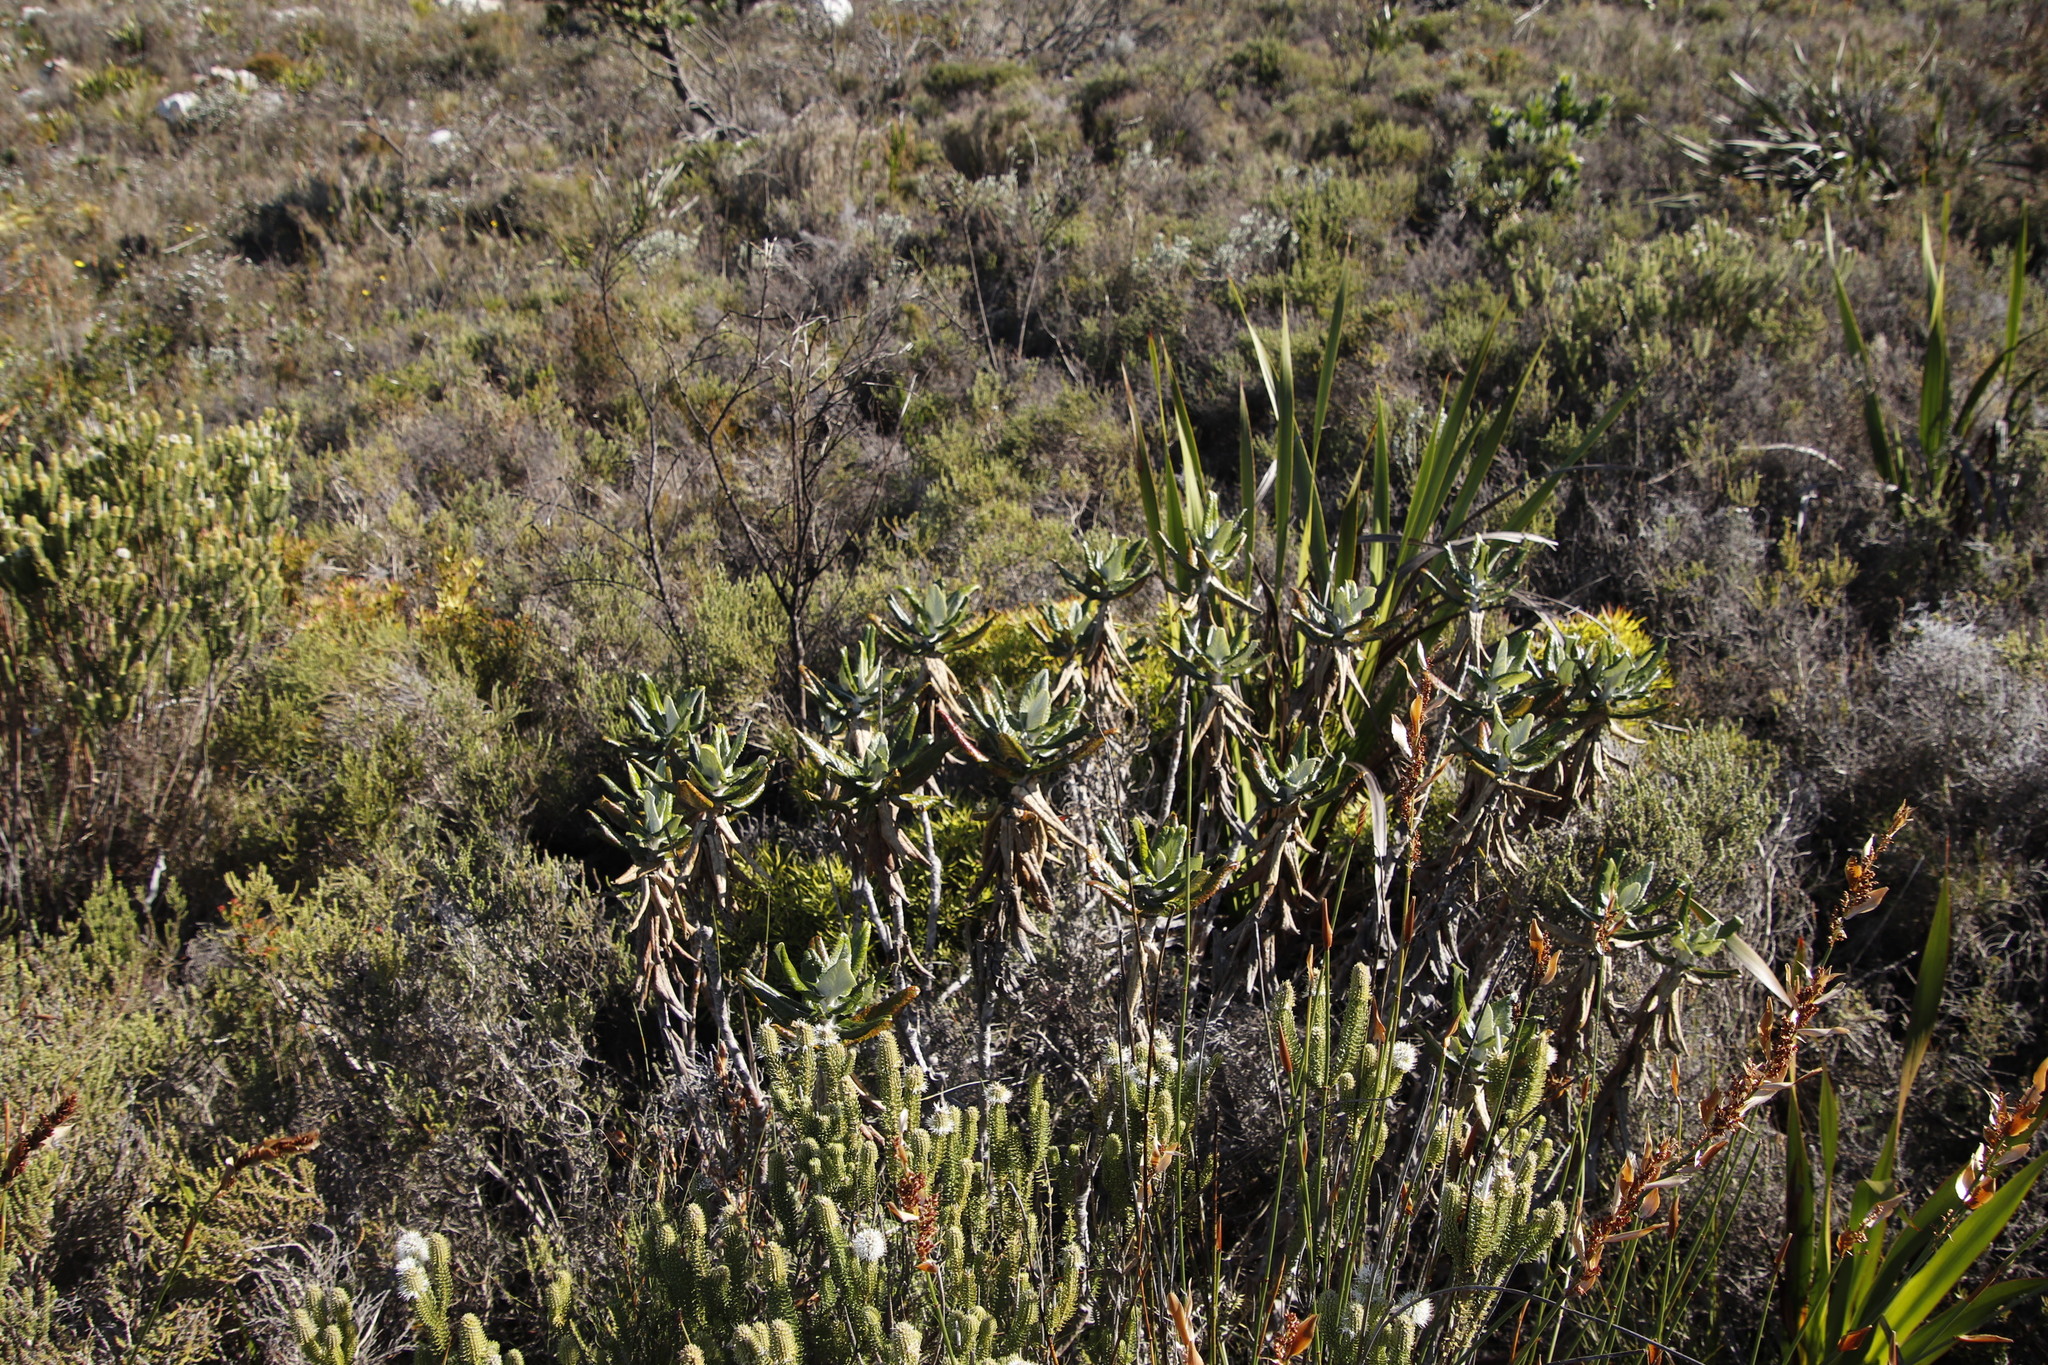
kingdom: Plantae
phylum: Tracheophyta
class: Magnoliopsida
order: Apiales
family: Apiaceae
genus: Hermas
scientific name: Hermas villosa
